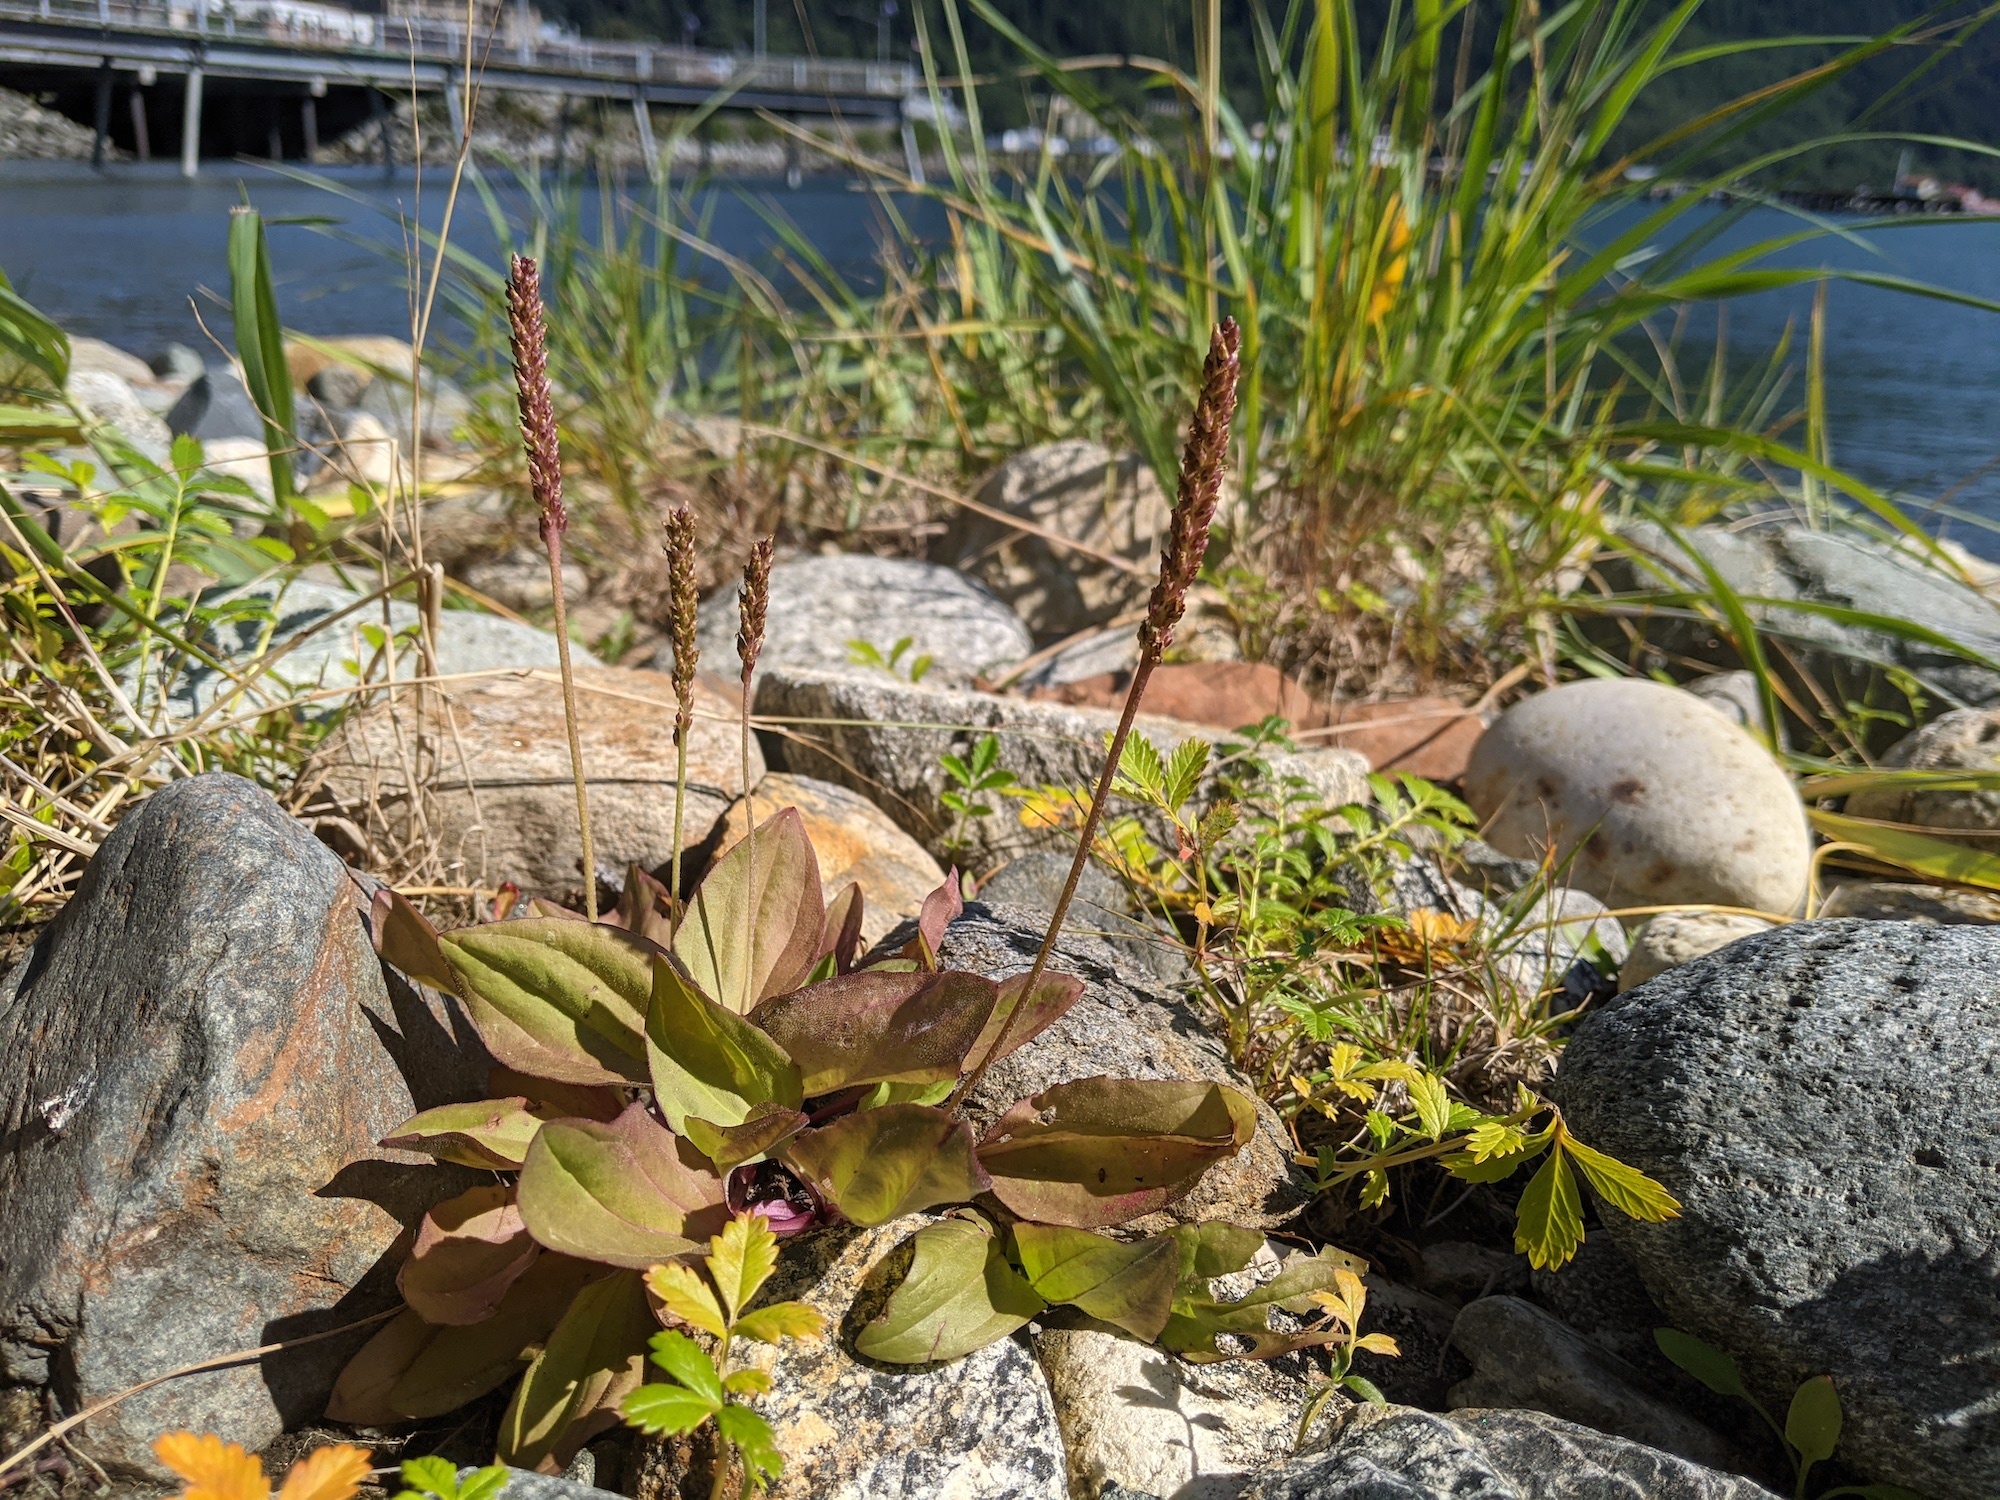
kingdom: Plantae
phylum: Tracheophyta
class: Magnoliopsida
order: Lamiales
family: Plantaginaceae
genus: Plantago
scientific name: Plantago major
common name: Common plantain
